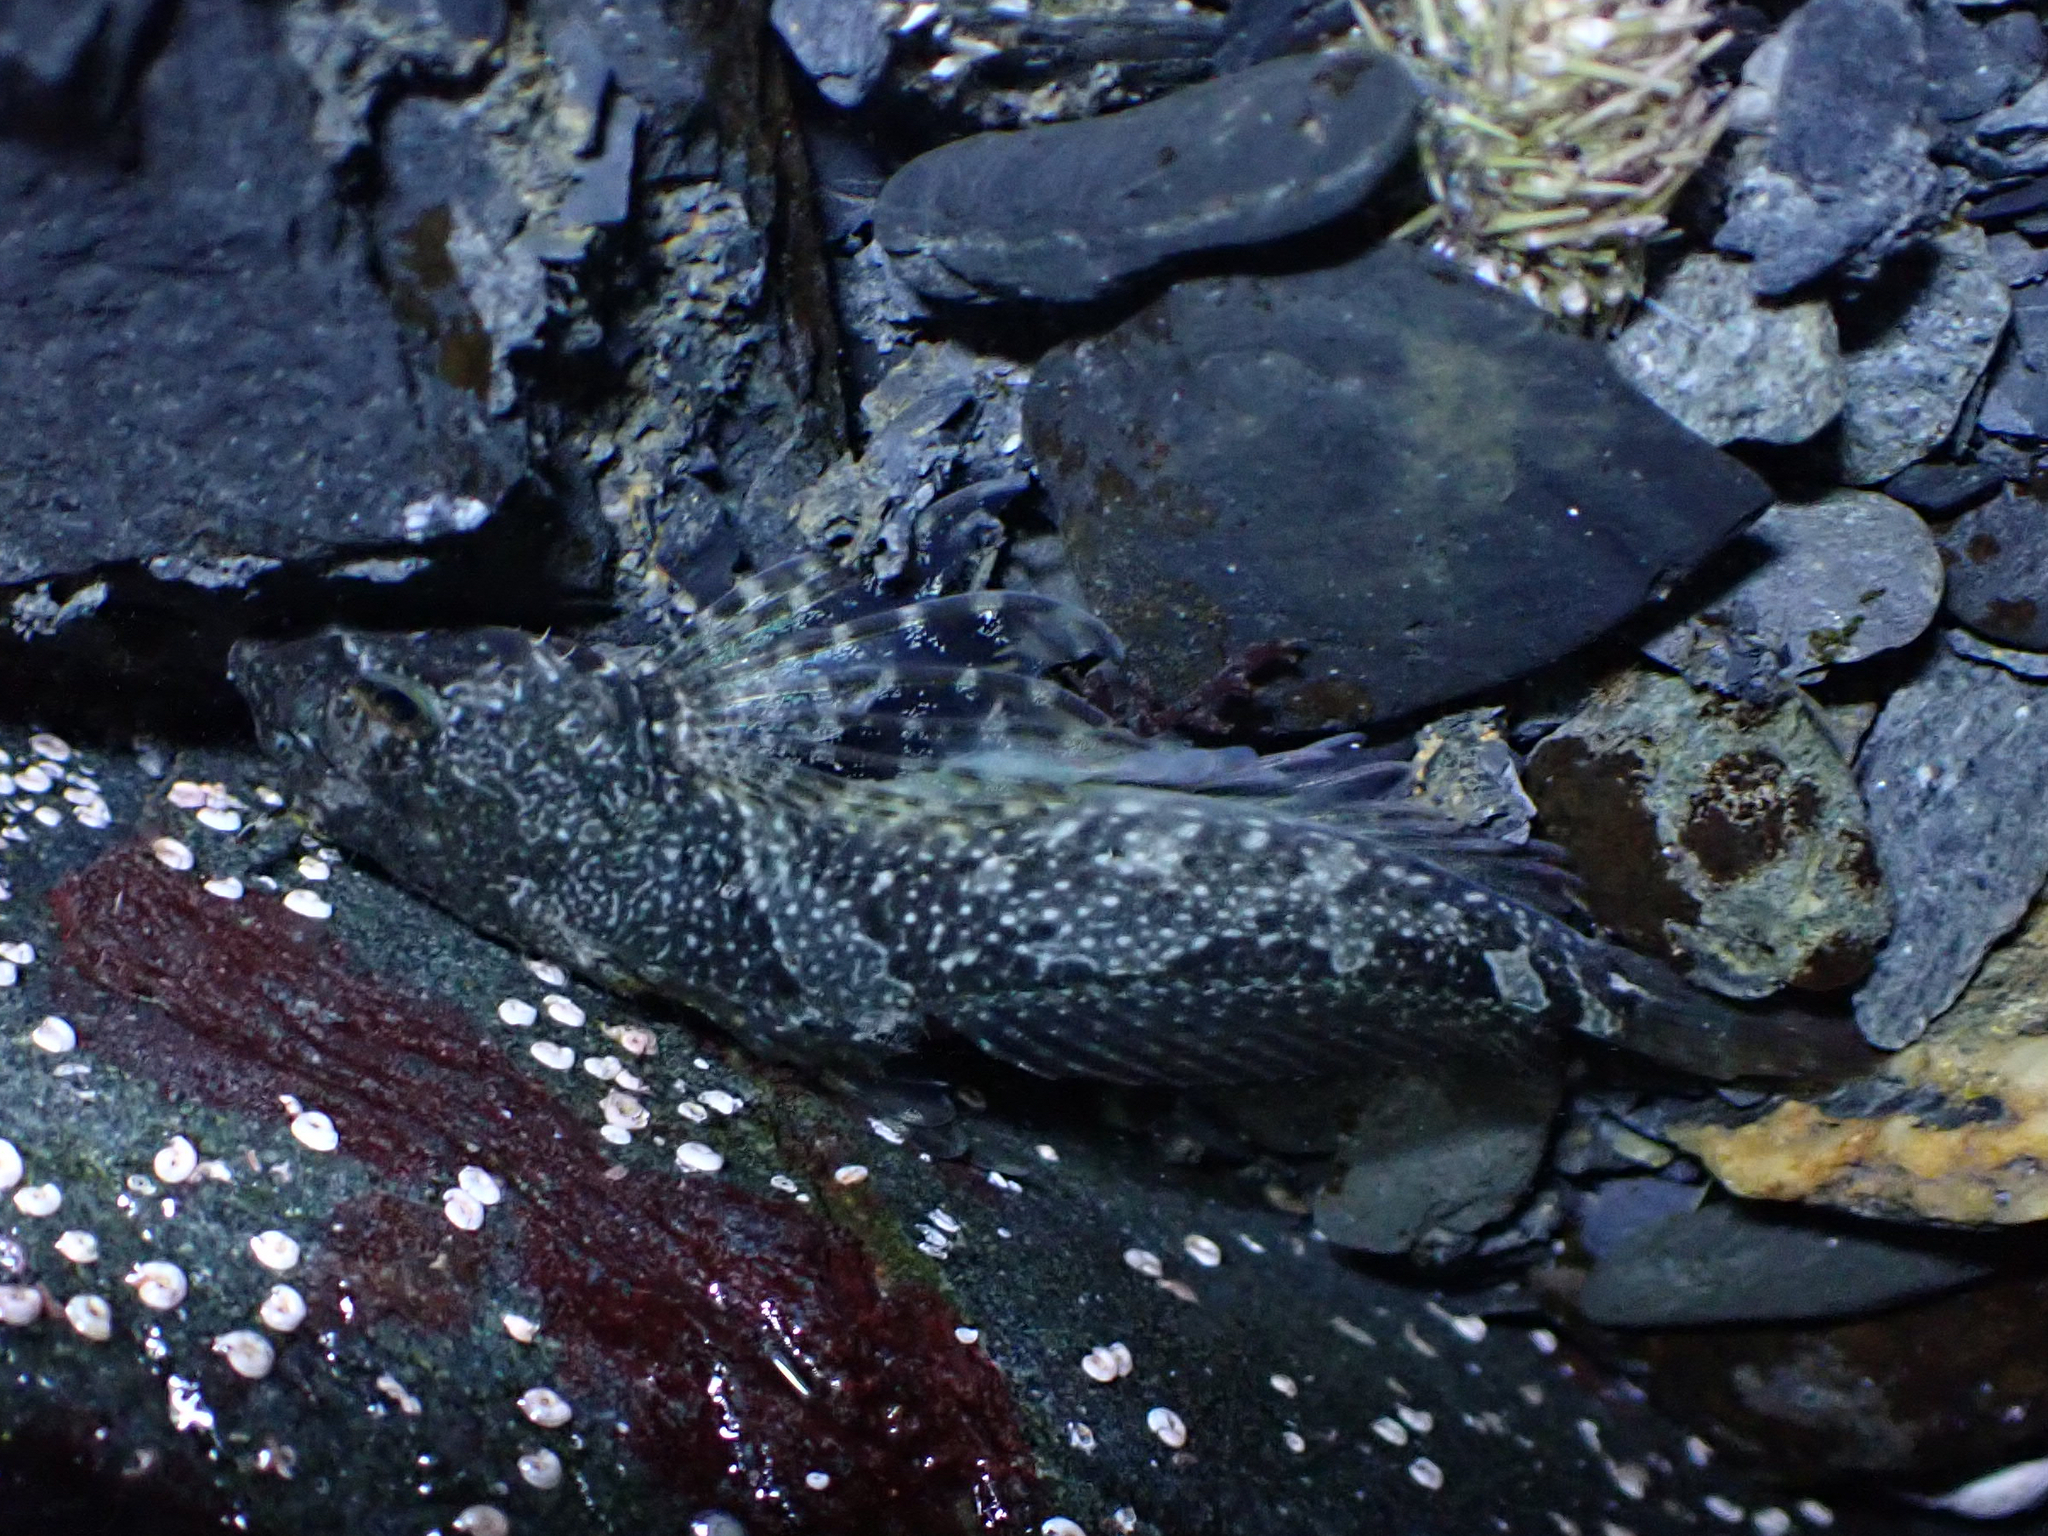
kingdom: Animalia
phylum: Chordata
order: Scorpaeniformes
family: Cottidae
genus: Oligocottus
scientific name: Oligocottus maculosus
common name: Tidepool sculpin
